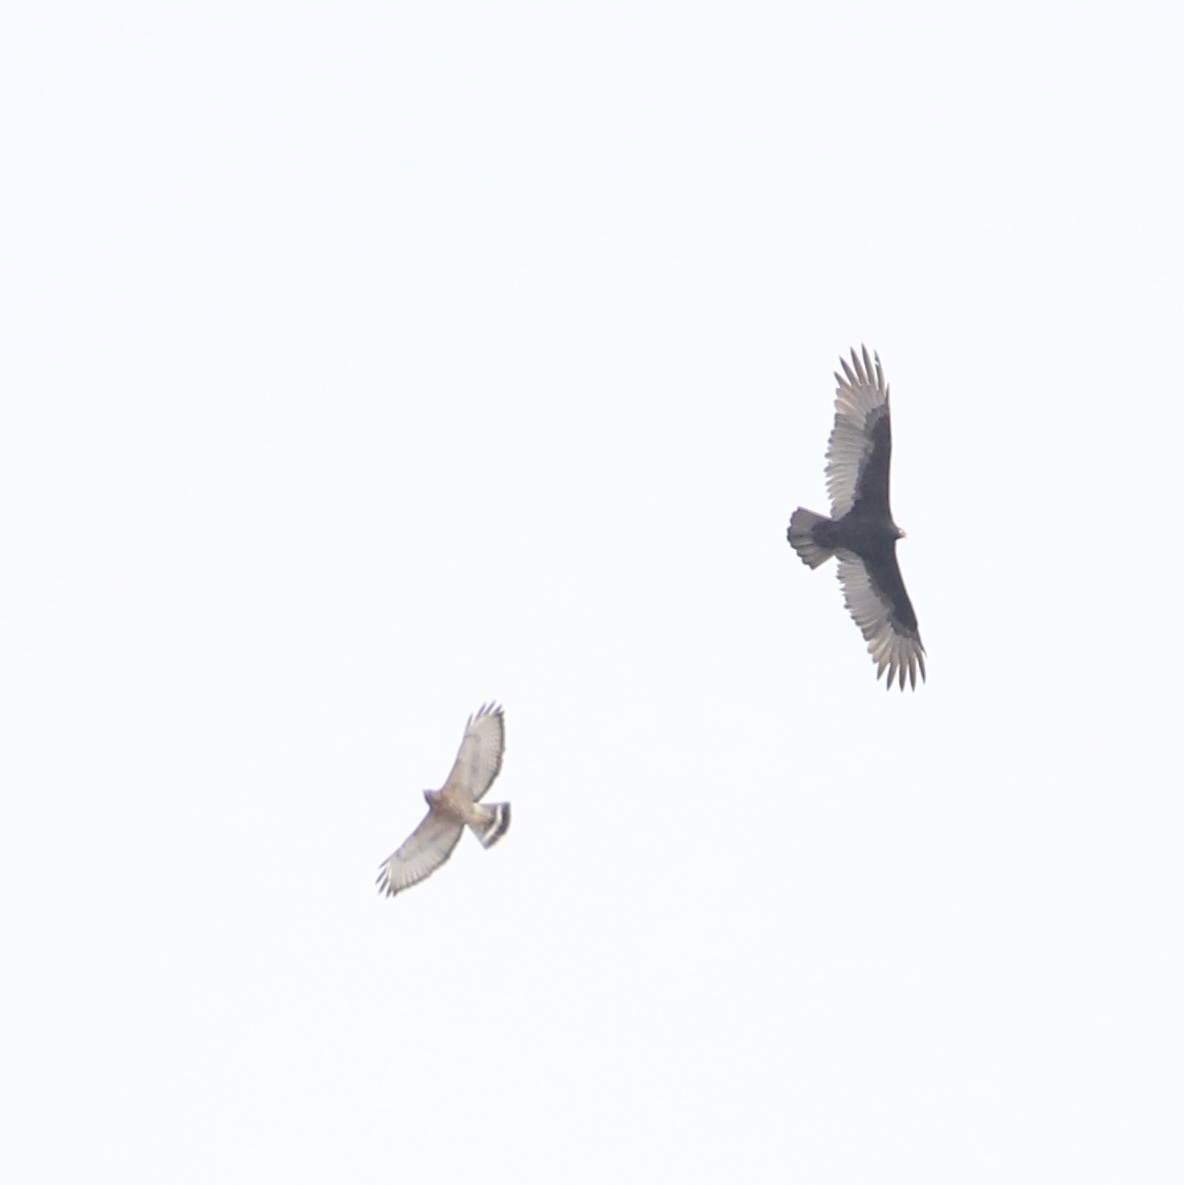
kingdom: Animalia
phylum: Chordata
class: Aves
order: Accipitriformes
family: Cathartidae
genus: Cathartes
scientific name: Cathartes aura
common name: Turkey vulture
